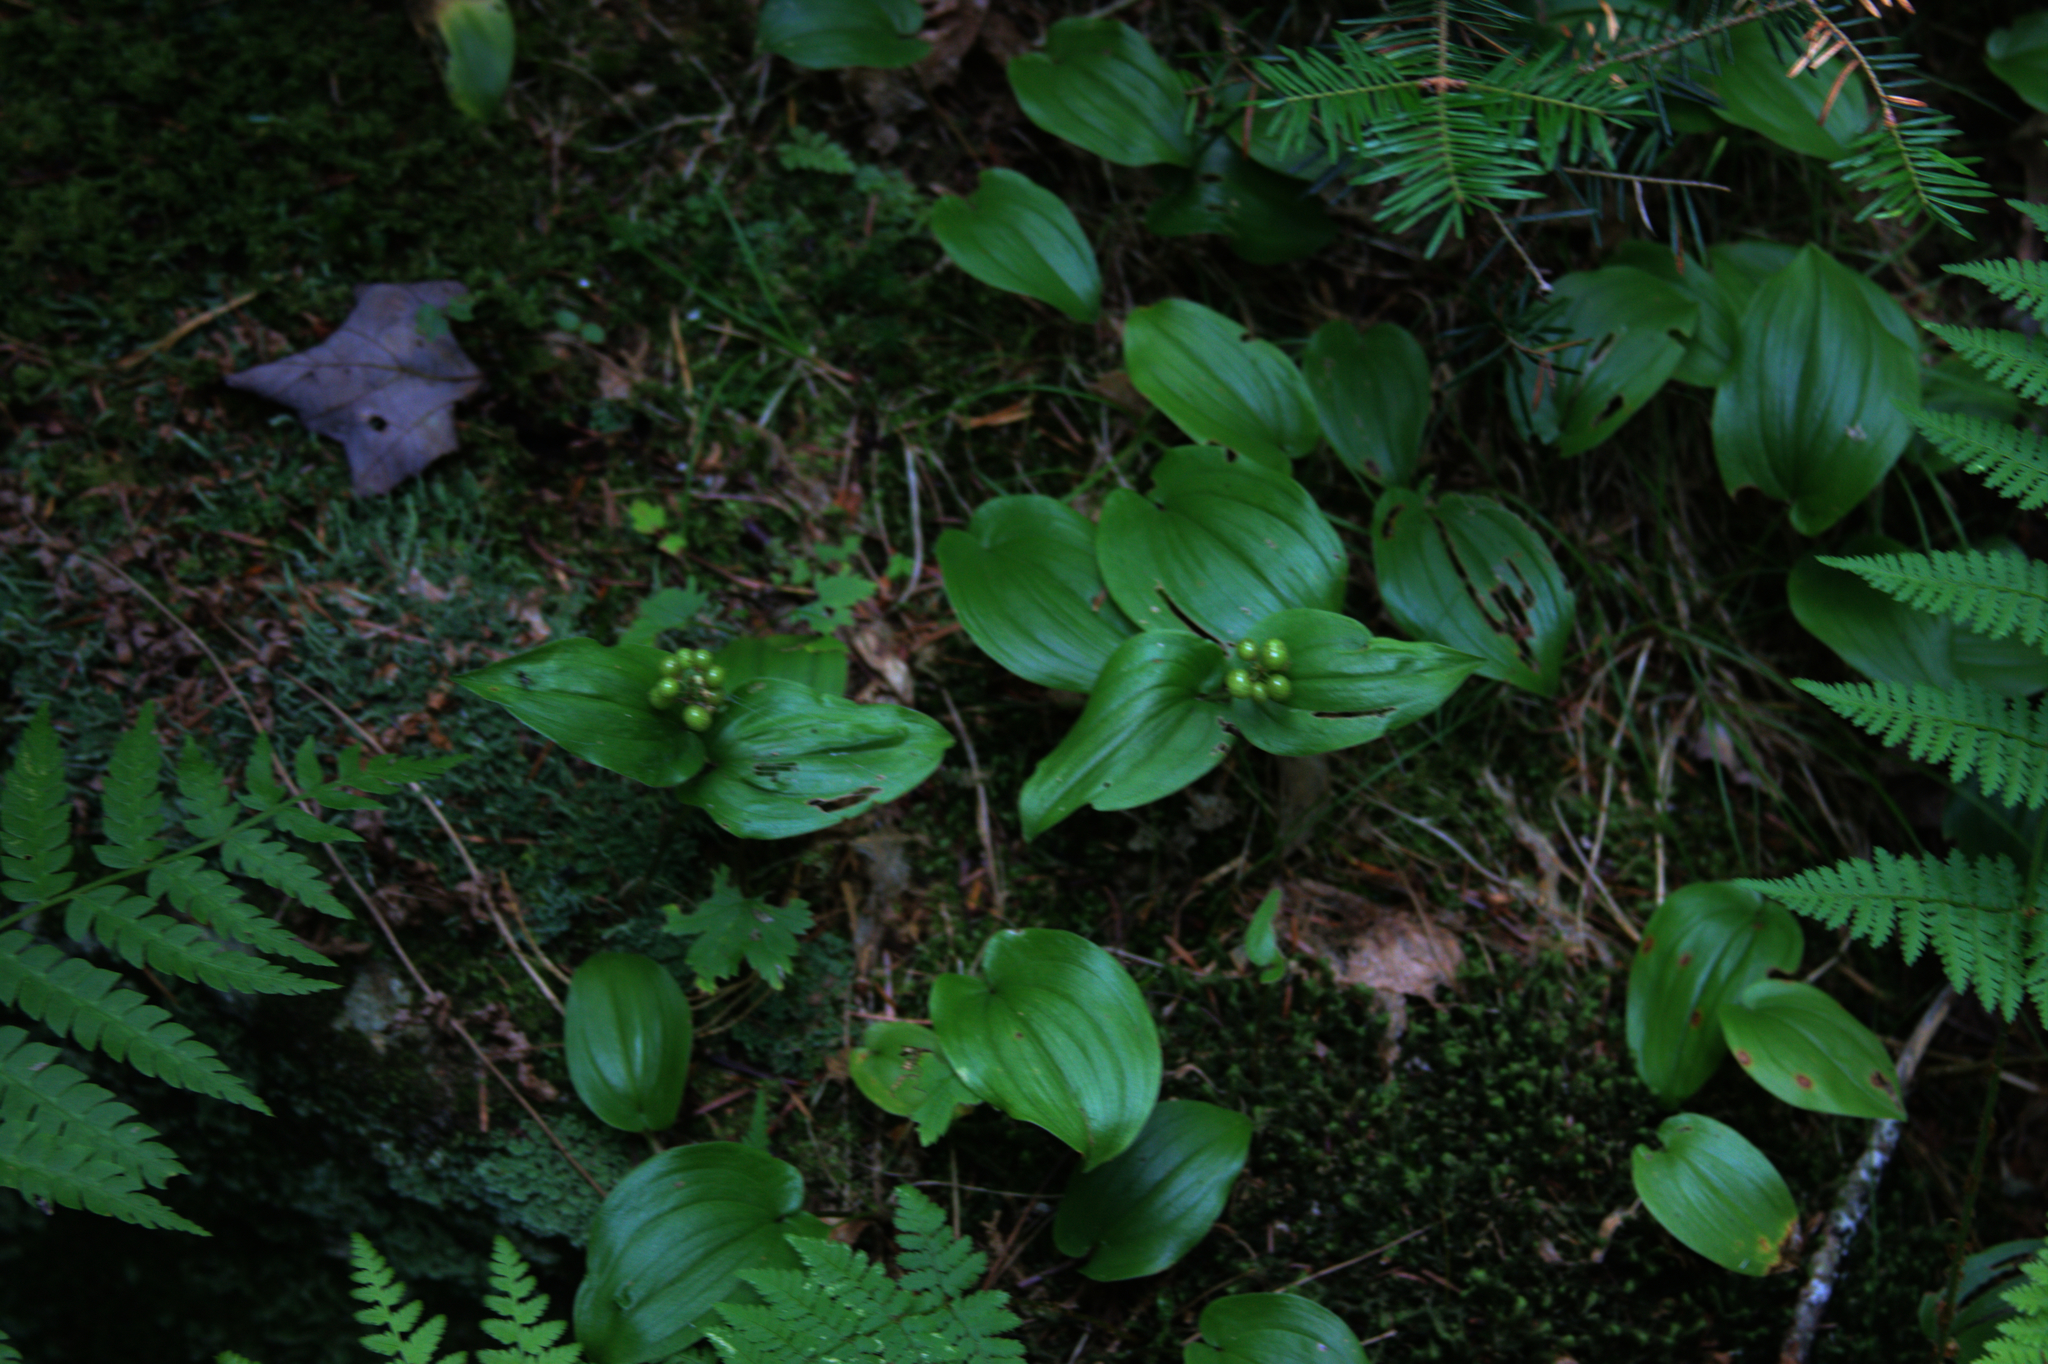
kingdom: Plantae
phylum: Tracheophyta
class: Liliopsida
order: Asparagales
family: Asparagaceae
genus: Maianthemum
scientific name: Maianthemum canadense
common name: False lily-of-the-valley
